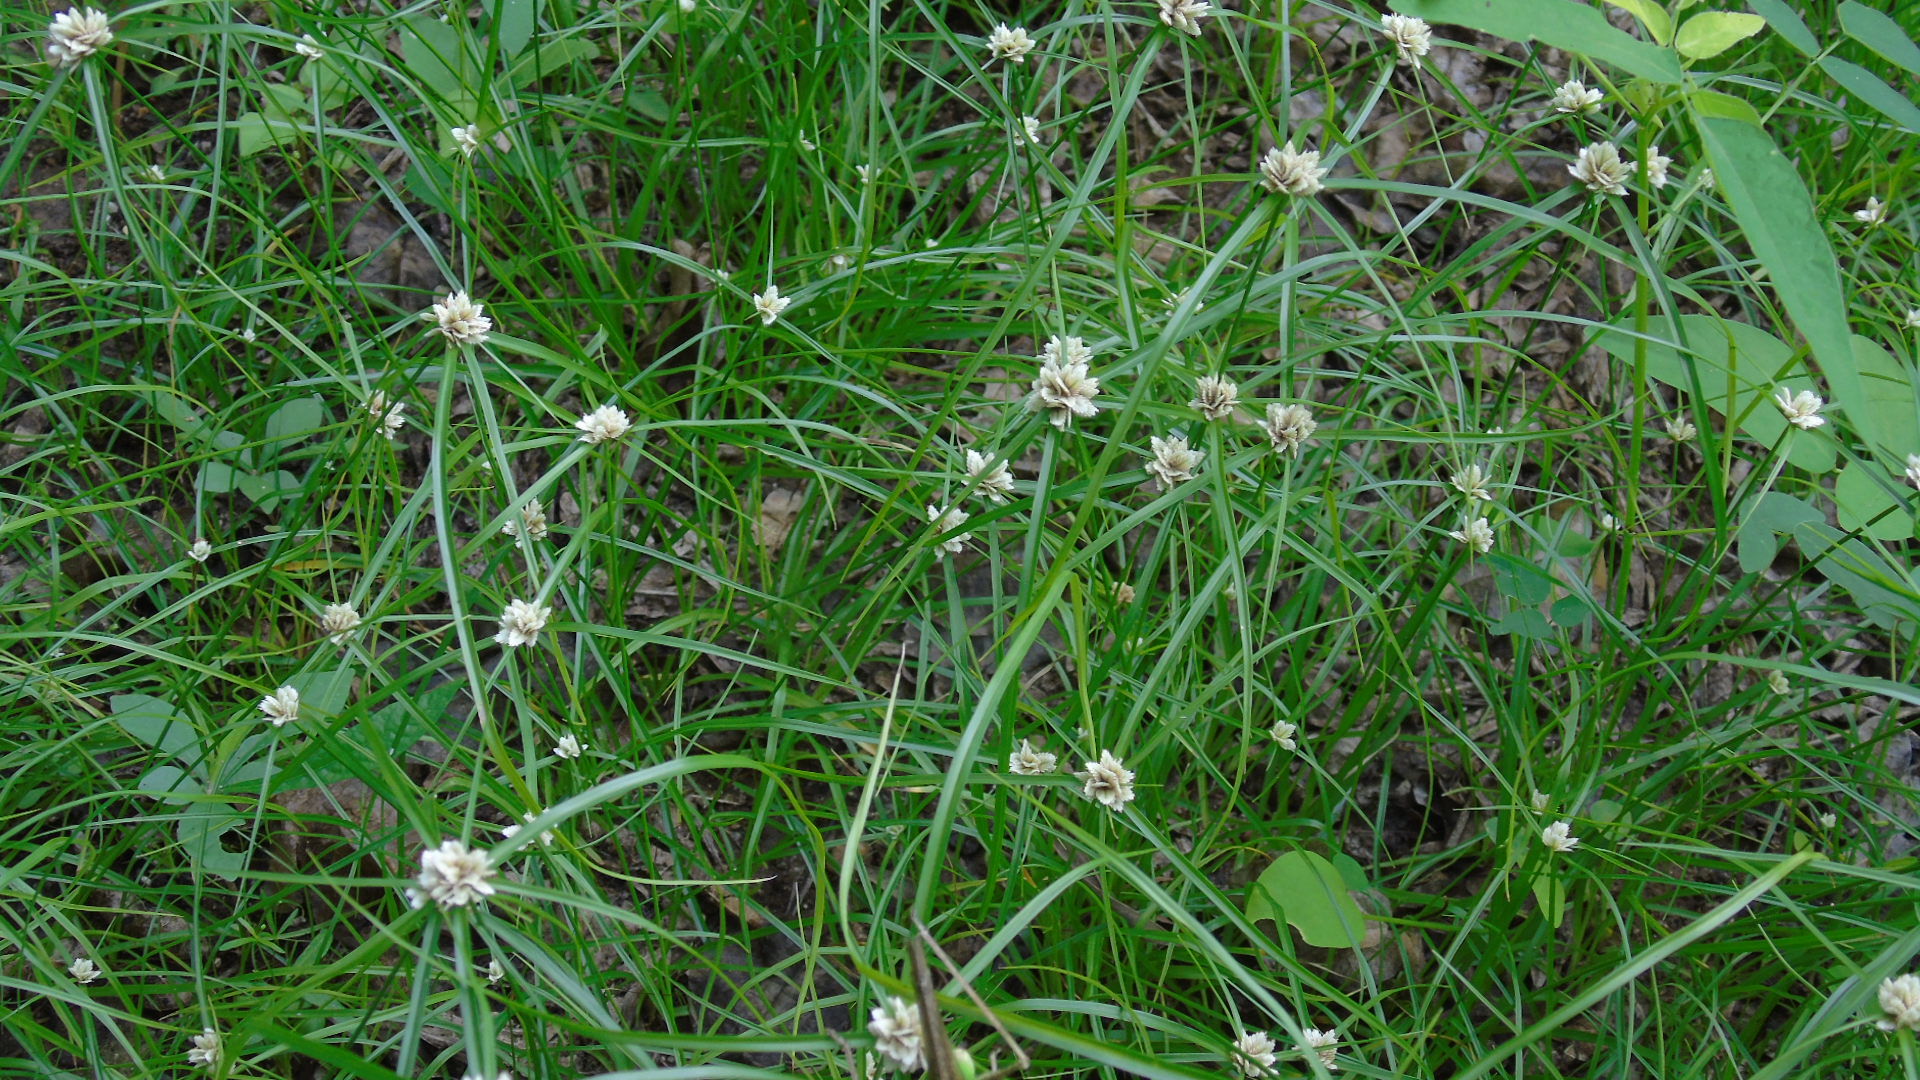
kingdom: Plantae
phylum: Tracheophyta
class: Liliopsida
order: Poales
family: Cyperaceae
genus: Cyperus
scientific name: Cyperus
